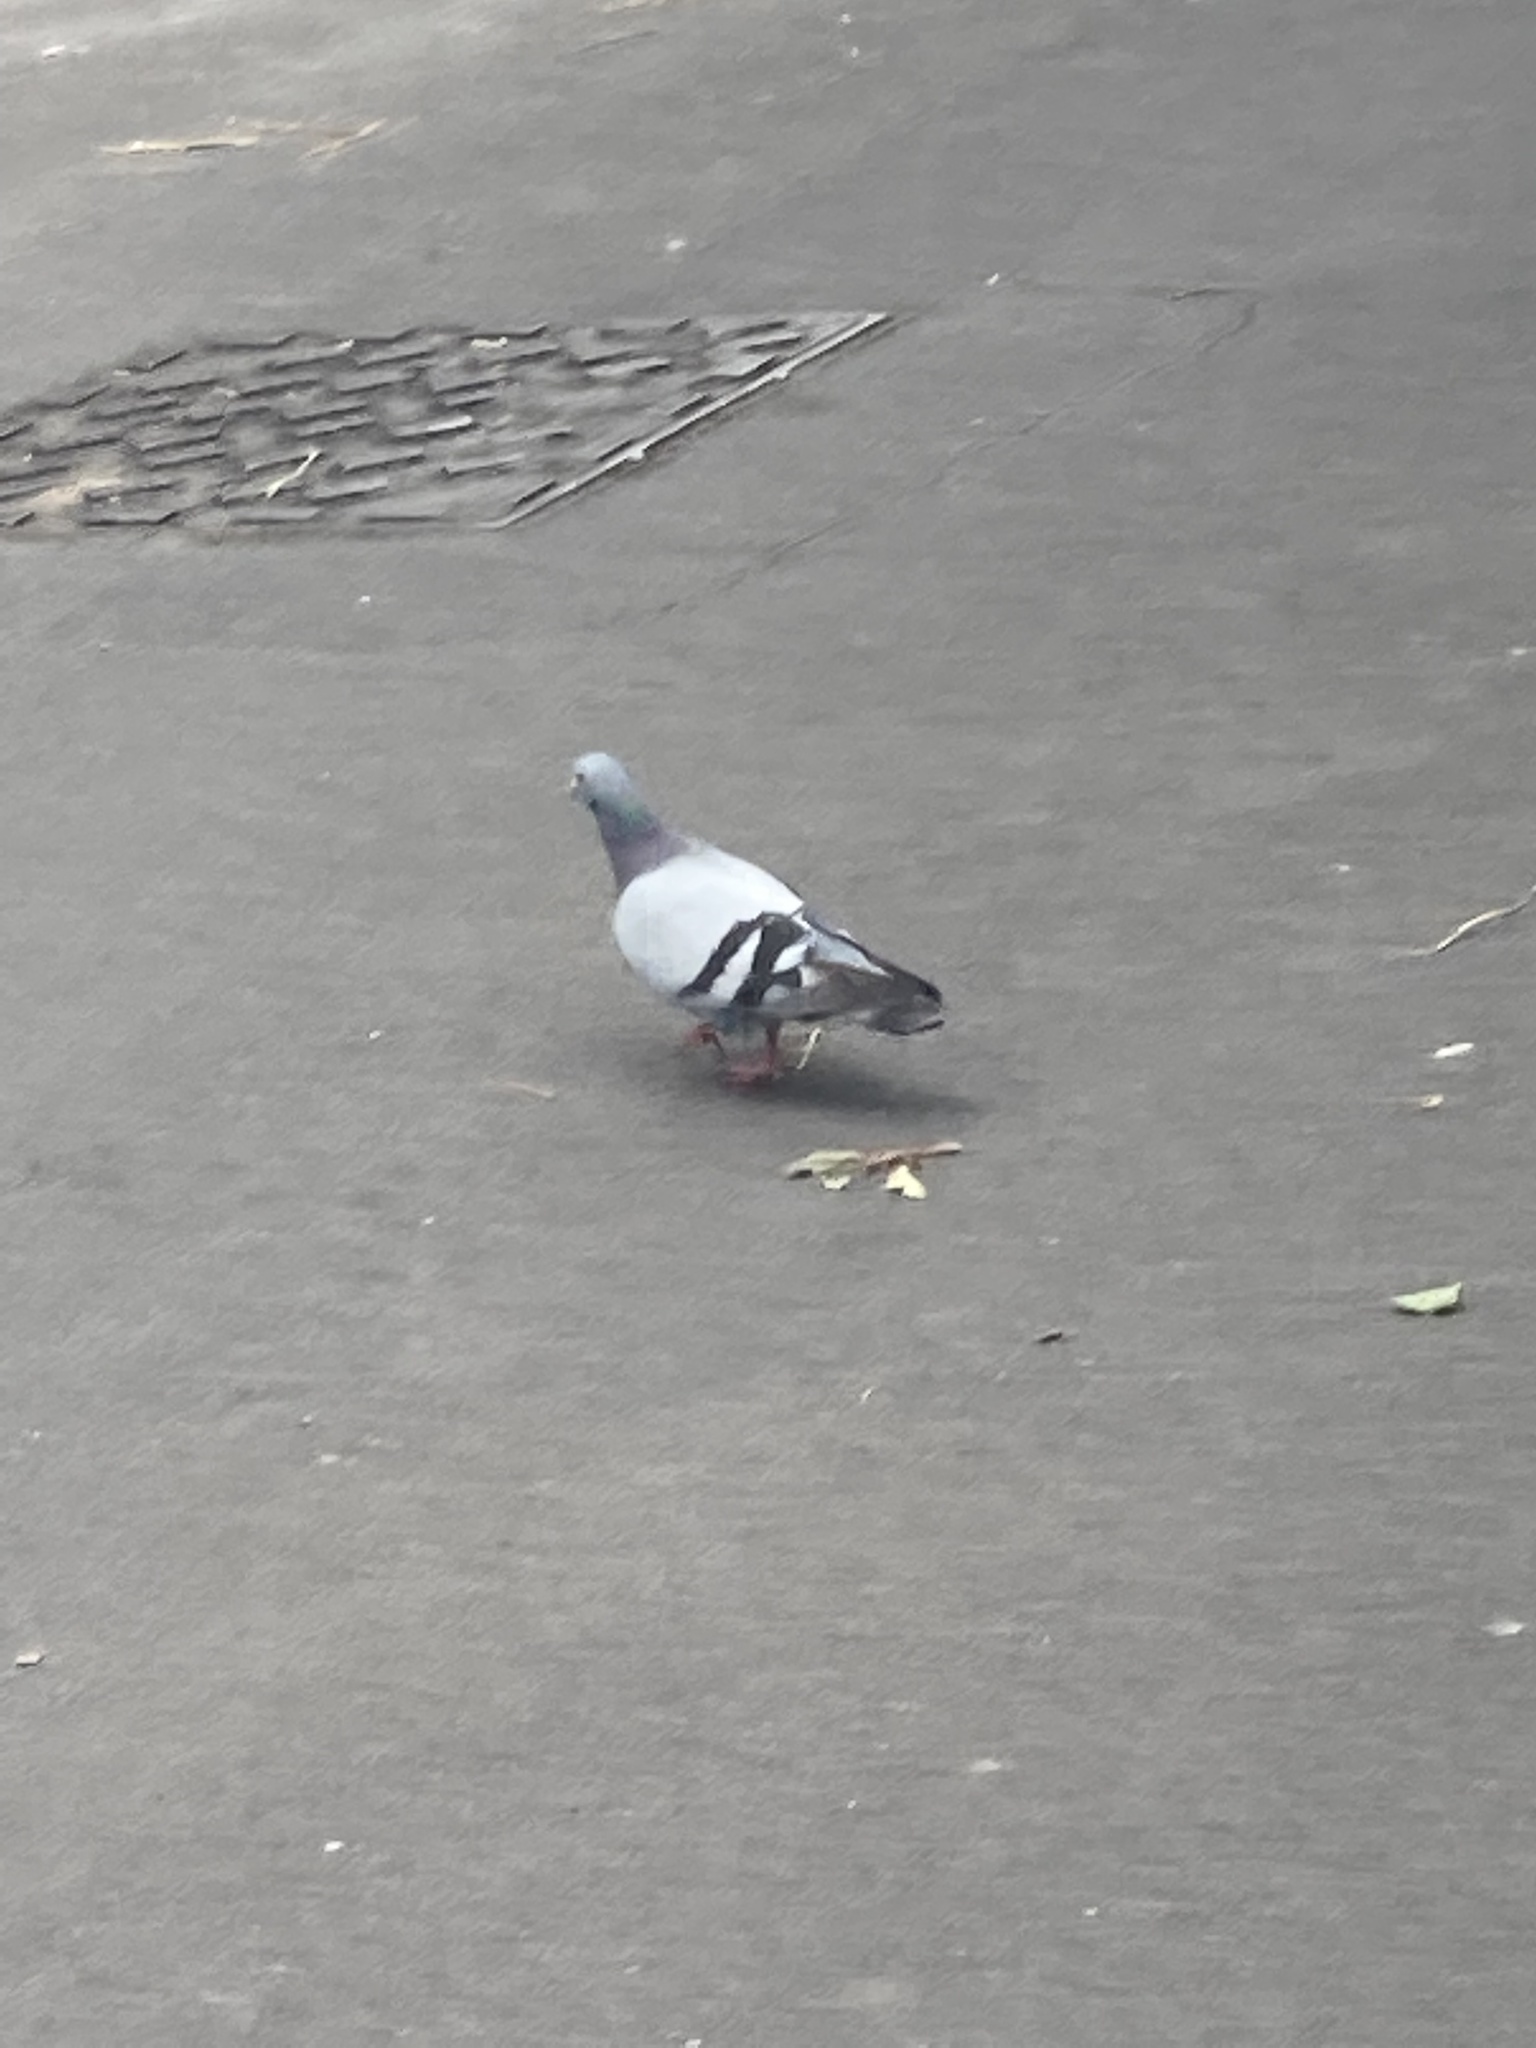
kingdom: Animalia
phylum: Chordata
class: Aves
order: Columbiformes
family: Columbidae
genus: Columba
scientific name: Columba livia
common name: Rock pigeon
